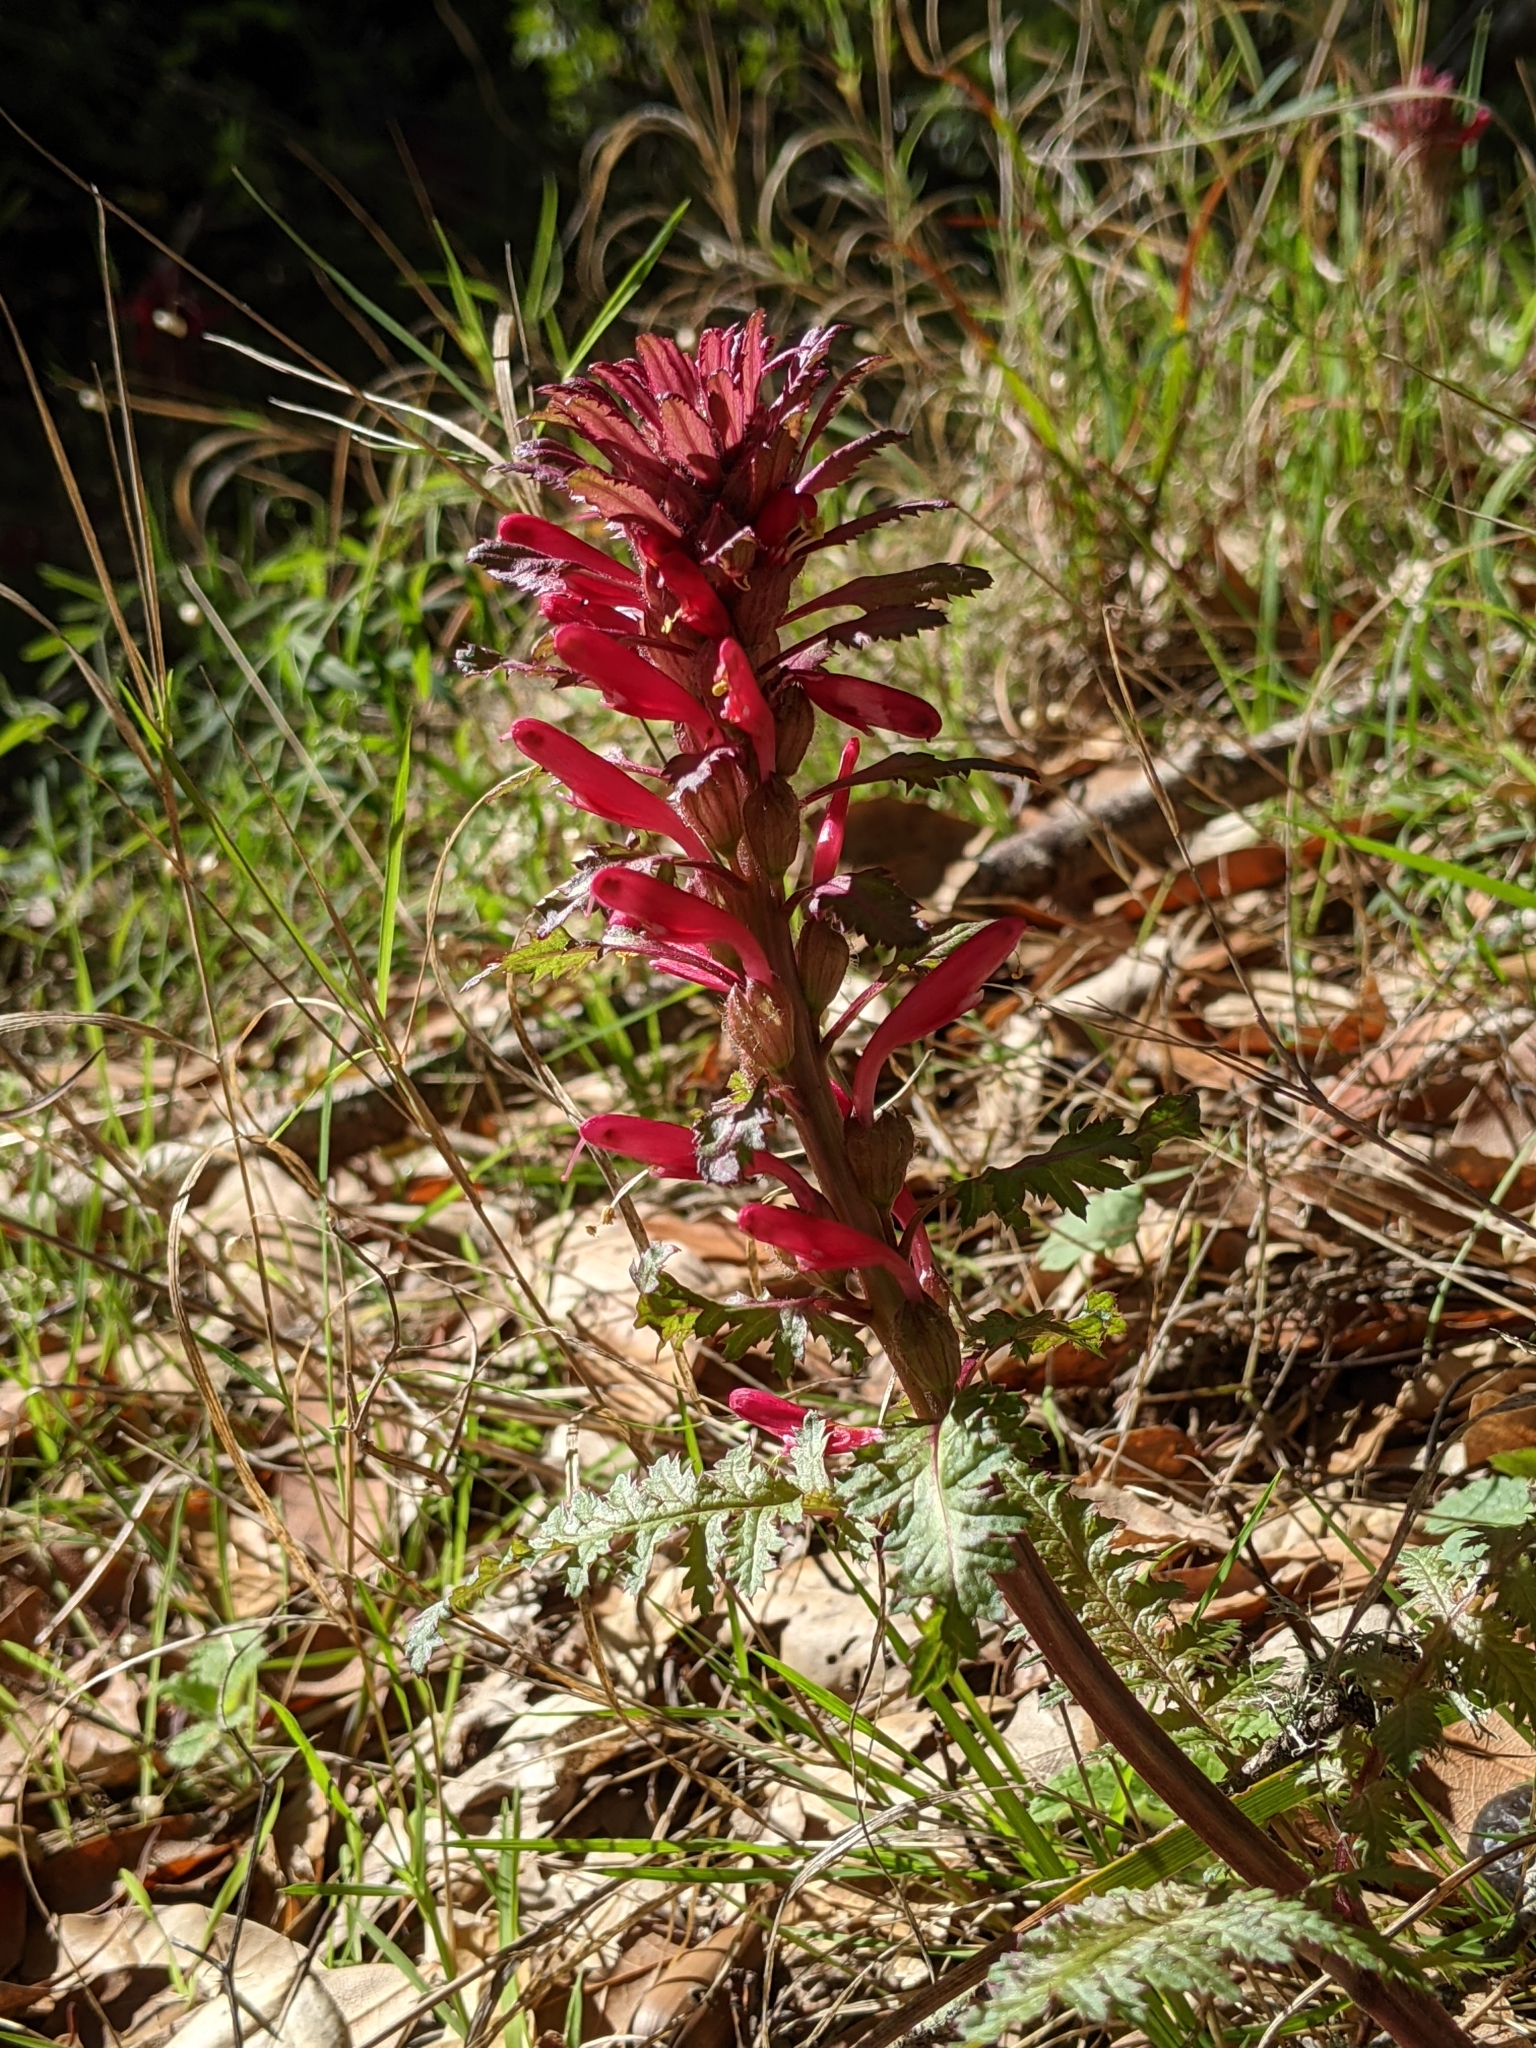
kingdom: Plantae
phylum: Tracheophyta
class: Magnoliopsida
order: Lamiales
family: Orobanchaceae
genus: Pedicularis
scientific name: Pedicularis densiflora
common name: Indian warrior
